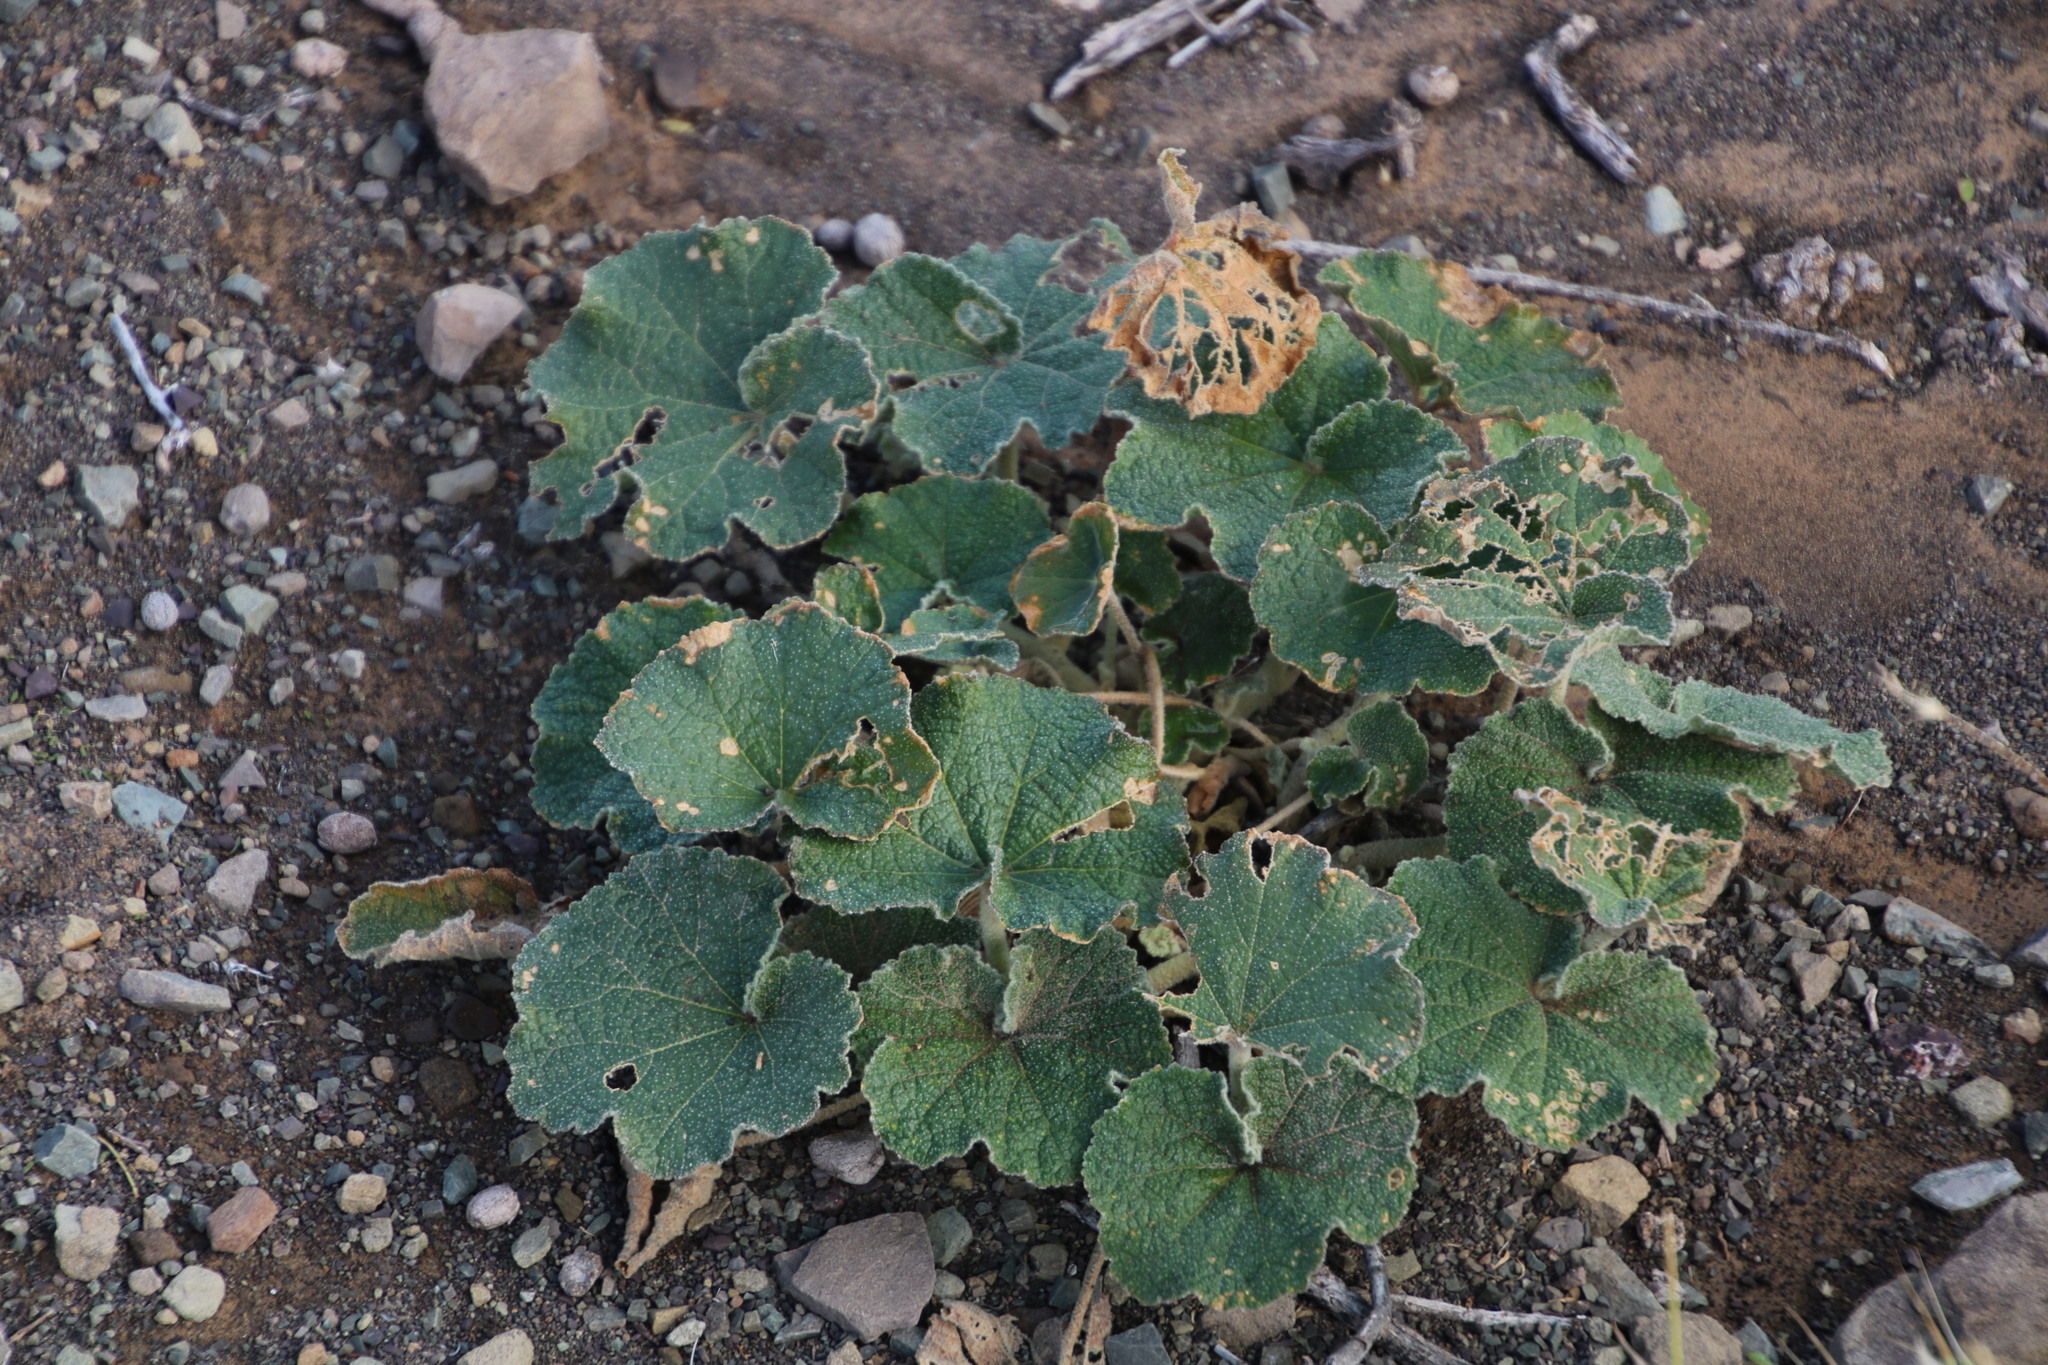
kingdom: Plantae
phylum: Tracheophyta
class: Magnoliopsida
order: Malvales
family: Malvaceae
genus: Radyera
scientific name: Radyera urens
